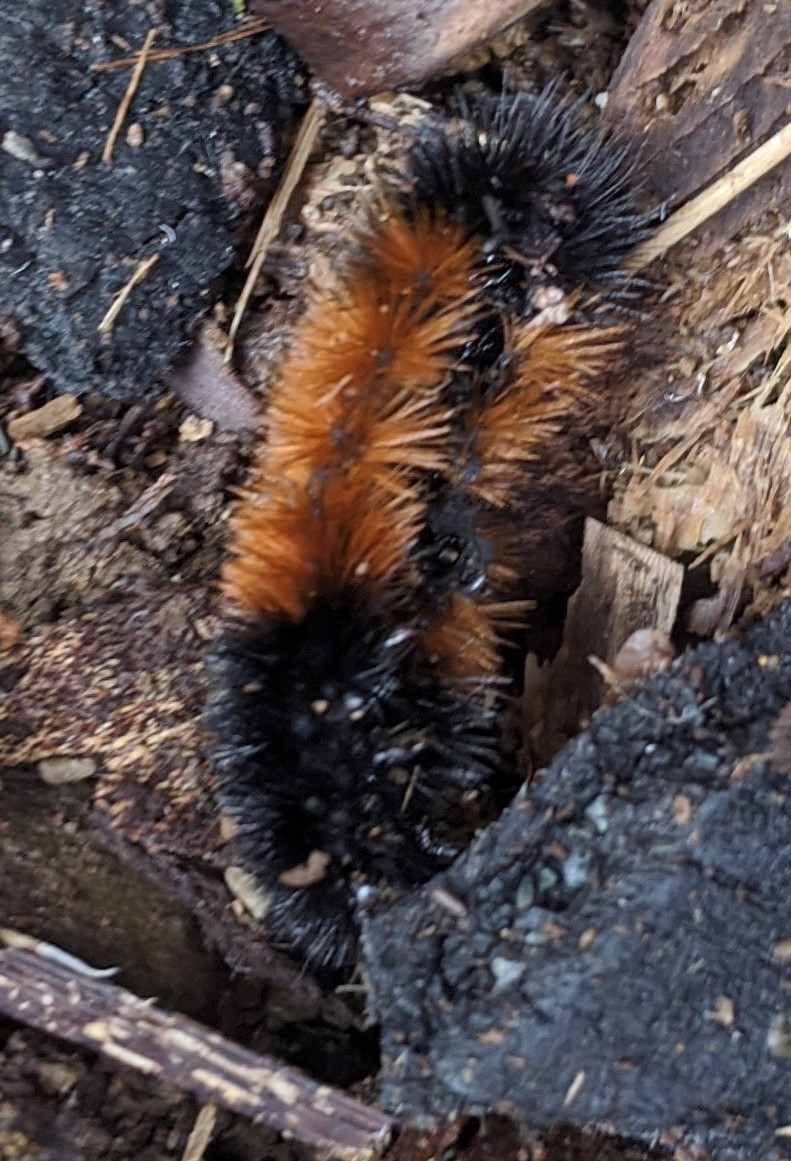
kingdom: Animalia
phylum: Arthropoda
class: Insecta
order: Lepidoptera
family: Erebidae
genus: Pyrrharctia
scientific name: Pyrrharctia isabella
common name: Isabella tiger moth
